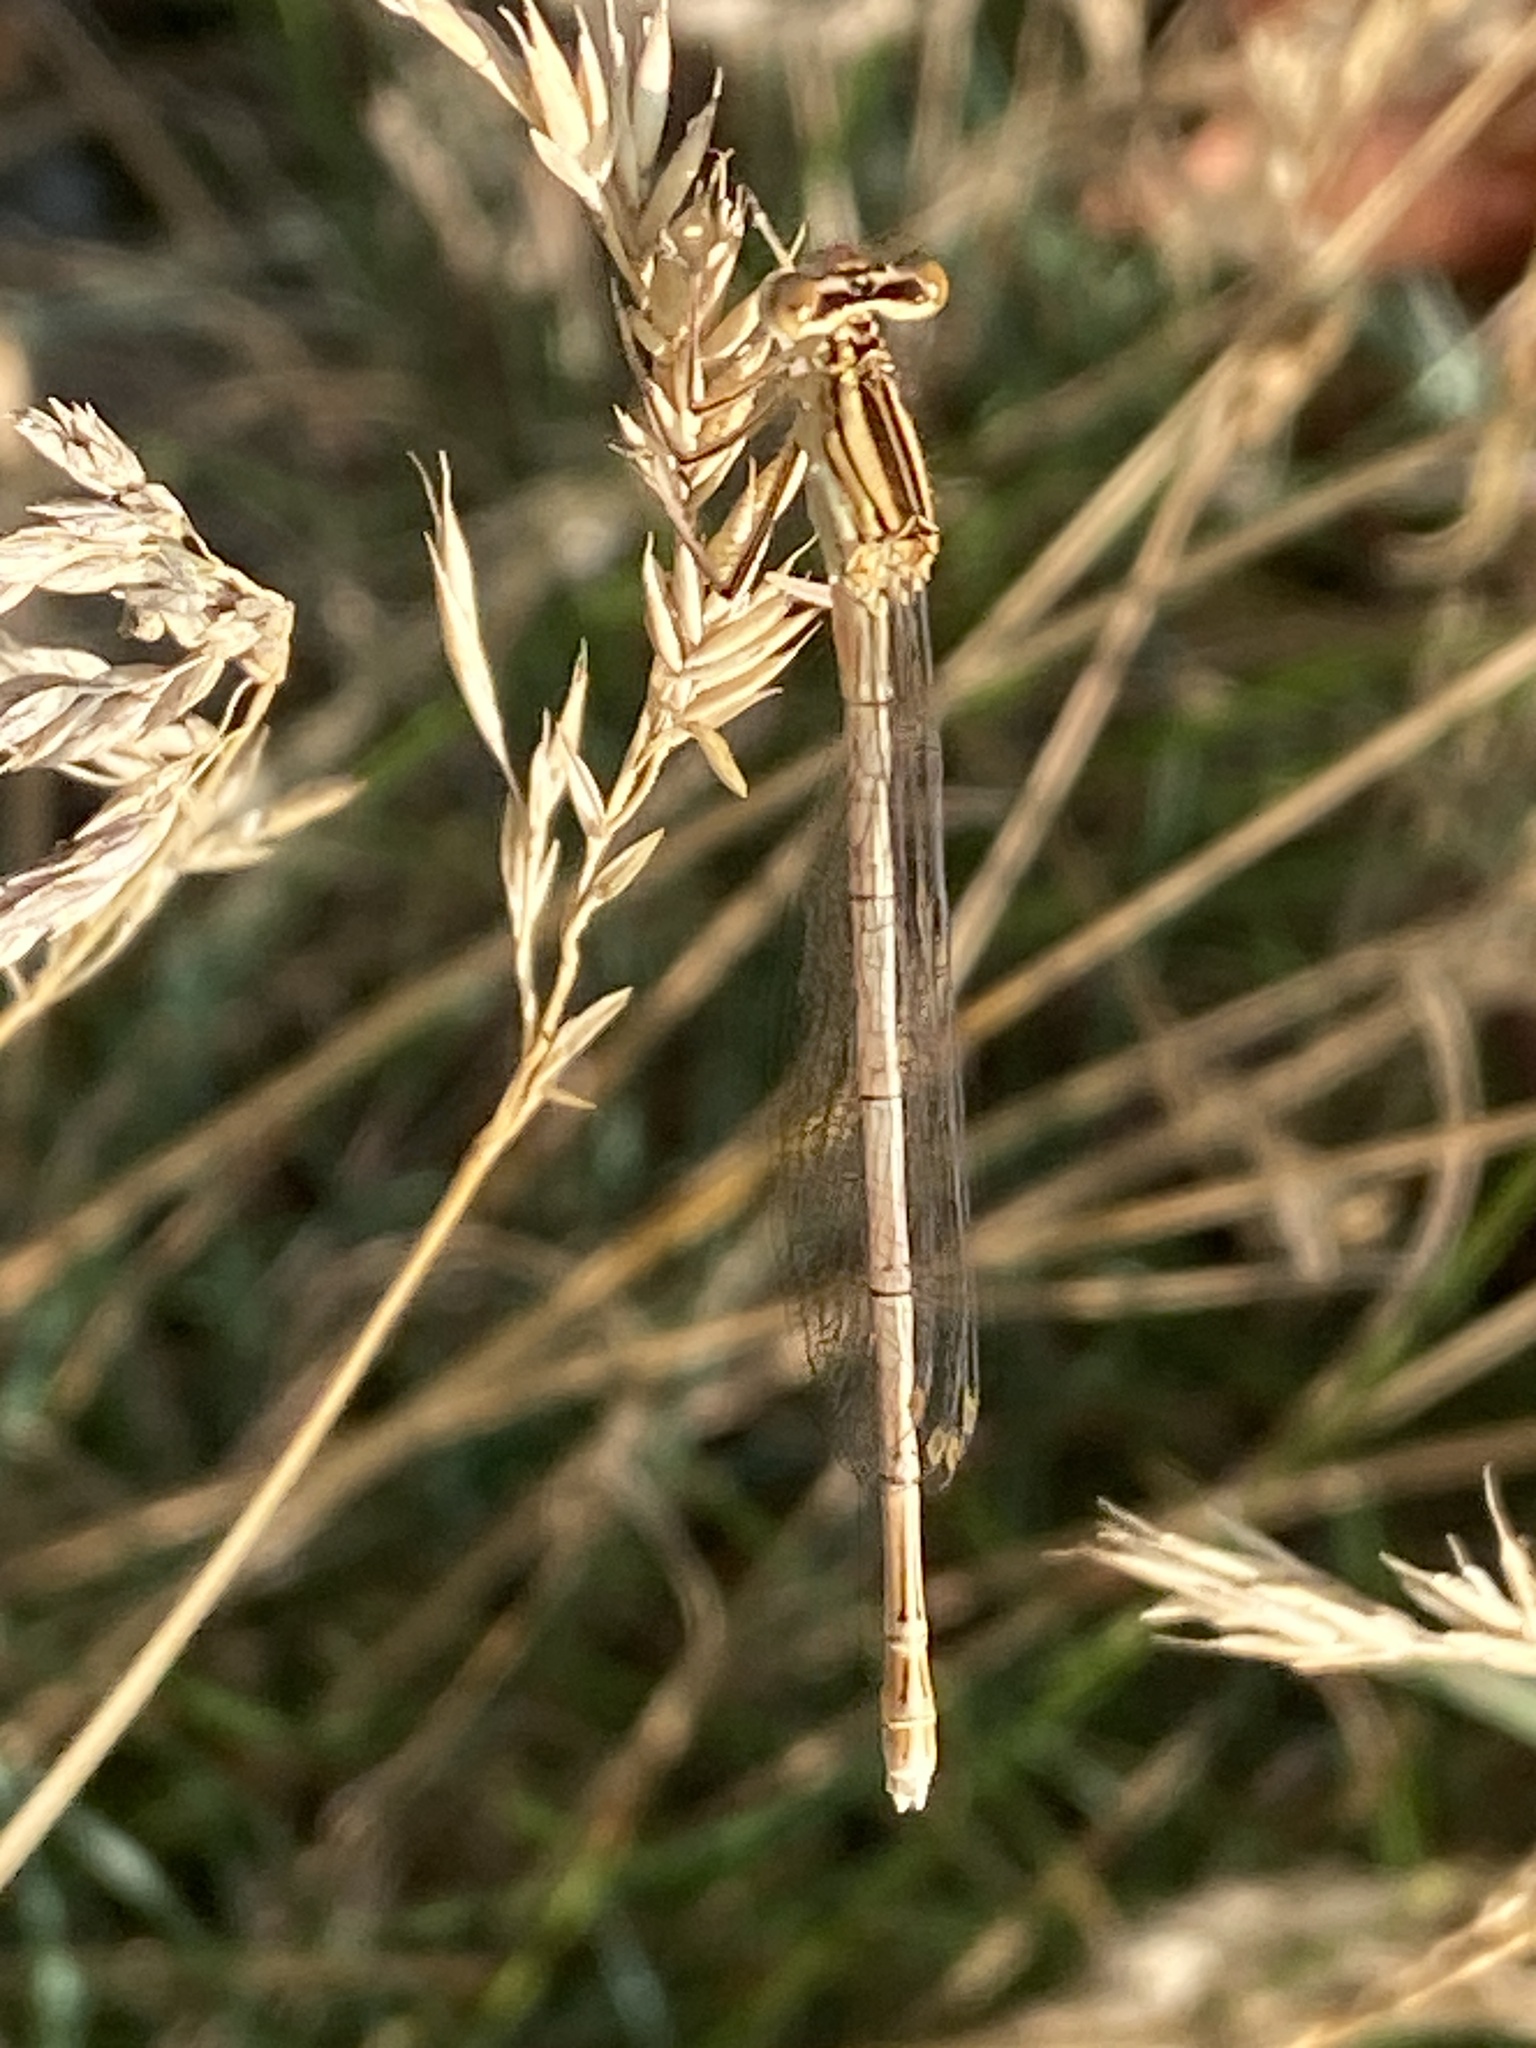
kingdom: Animalia
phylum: Arthropoda
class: Insecta
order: Odonata
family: Platycnemididae
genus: Platycnemis
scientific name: Platycnemis pennipes
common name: White-legged damselfly
